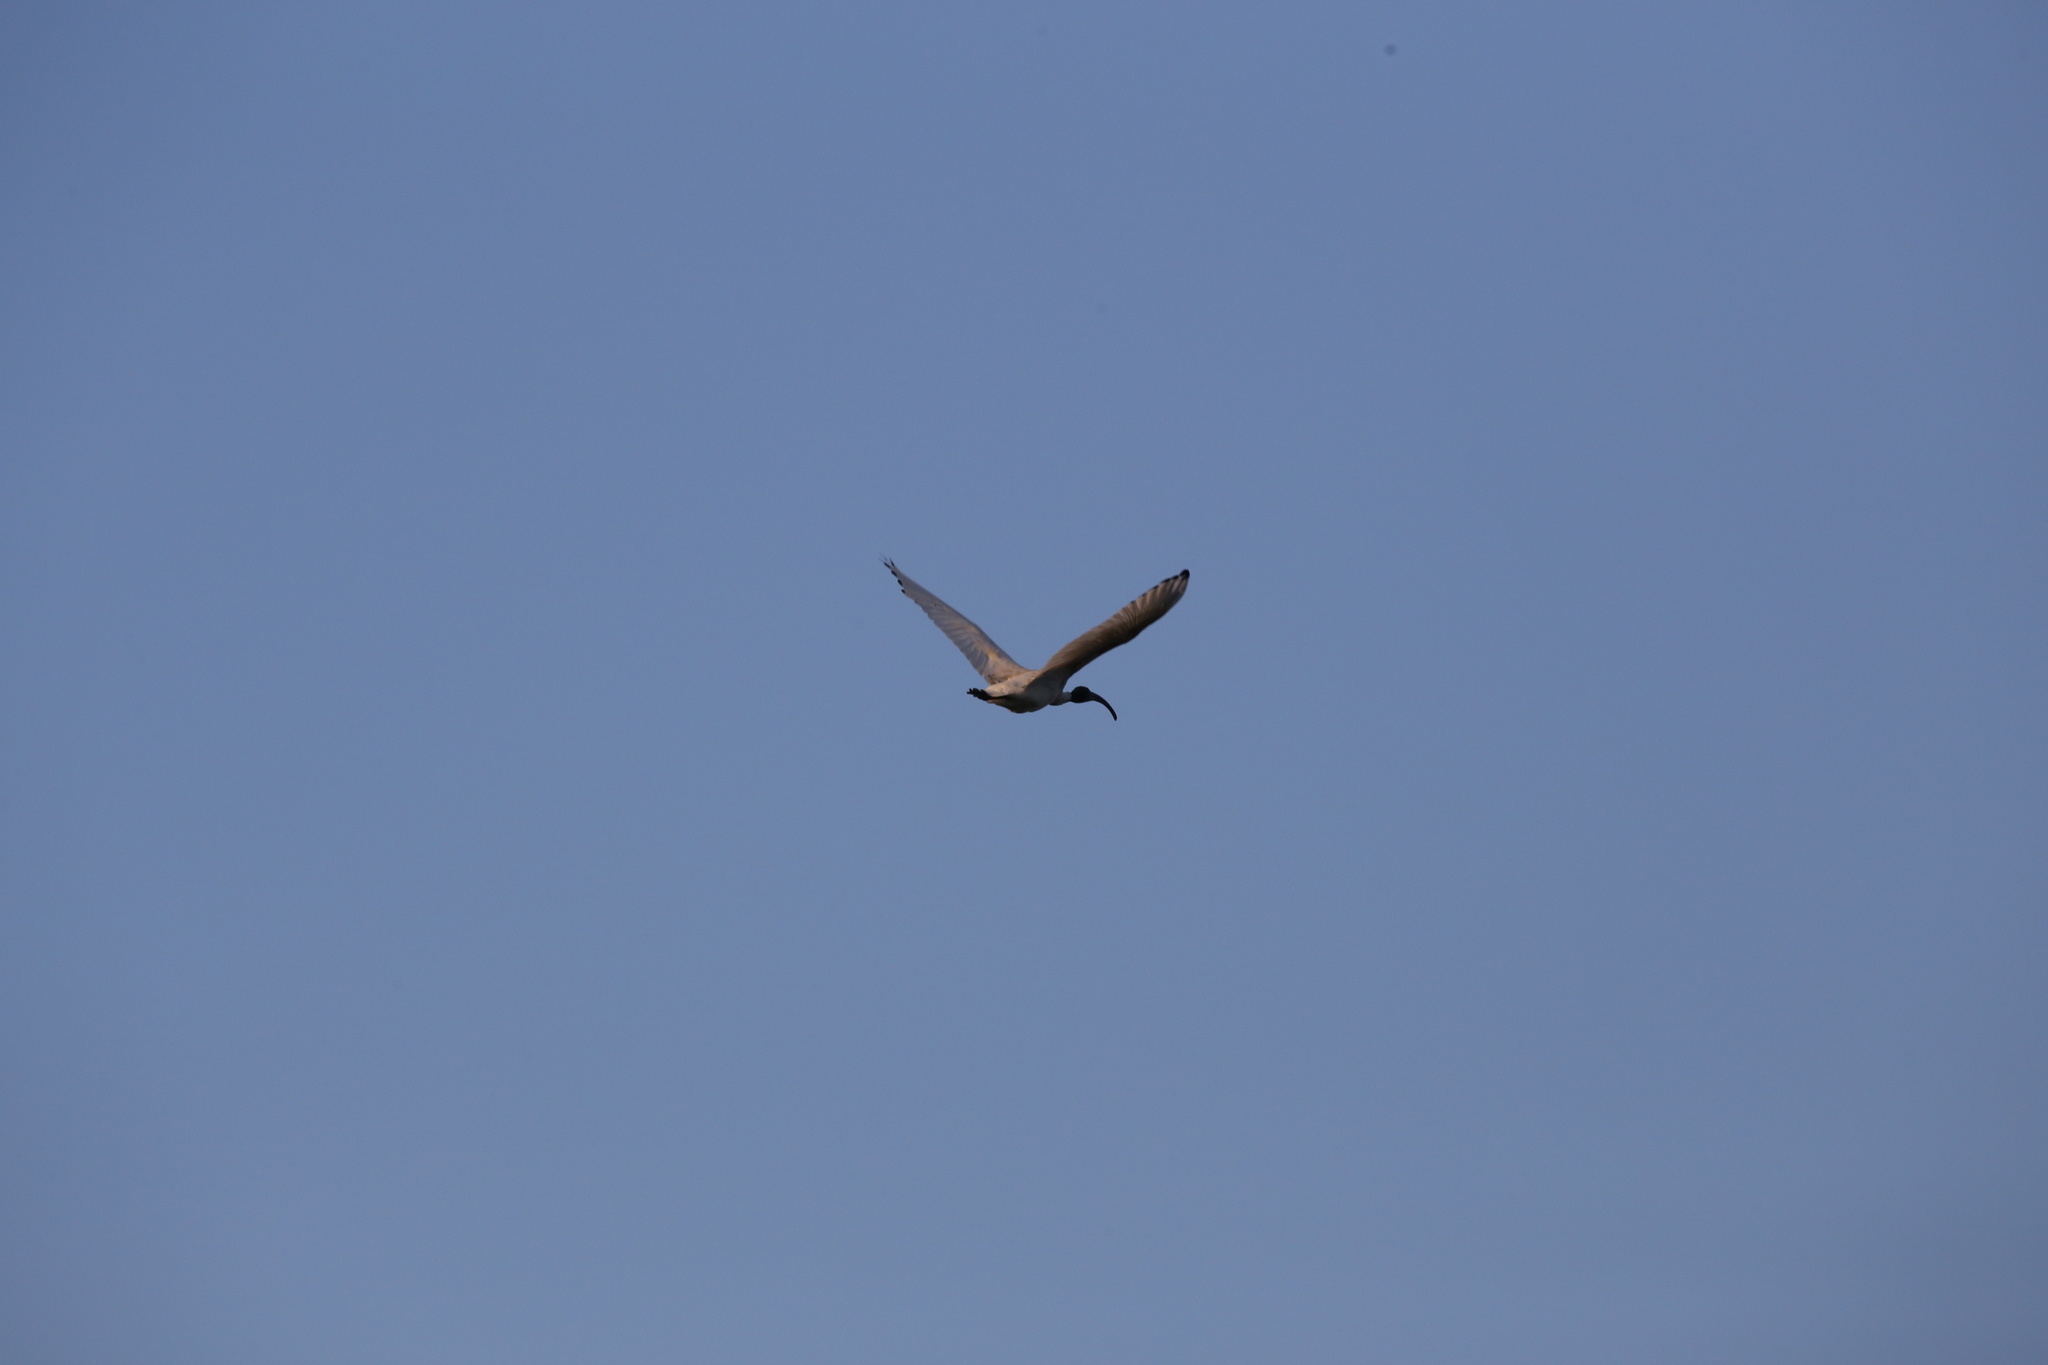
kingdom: Animalia
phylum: Chordata
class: Aves
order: Pelecaniformes
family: Threskiornithidae
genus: Threskiornis
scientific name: Threskiornis molucca
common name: Australian white ibis
